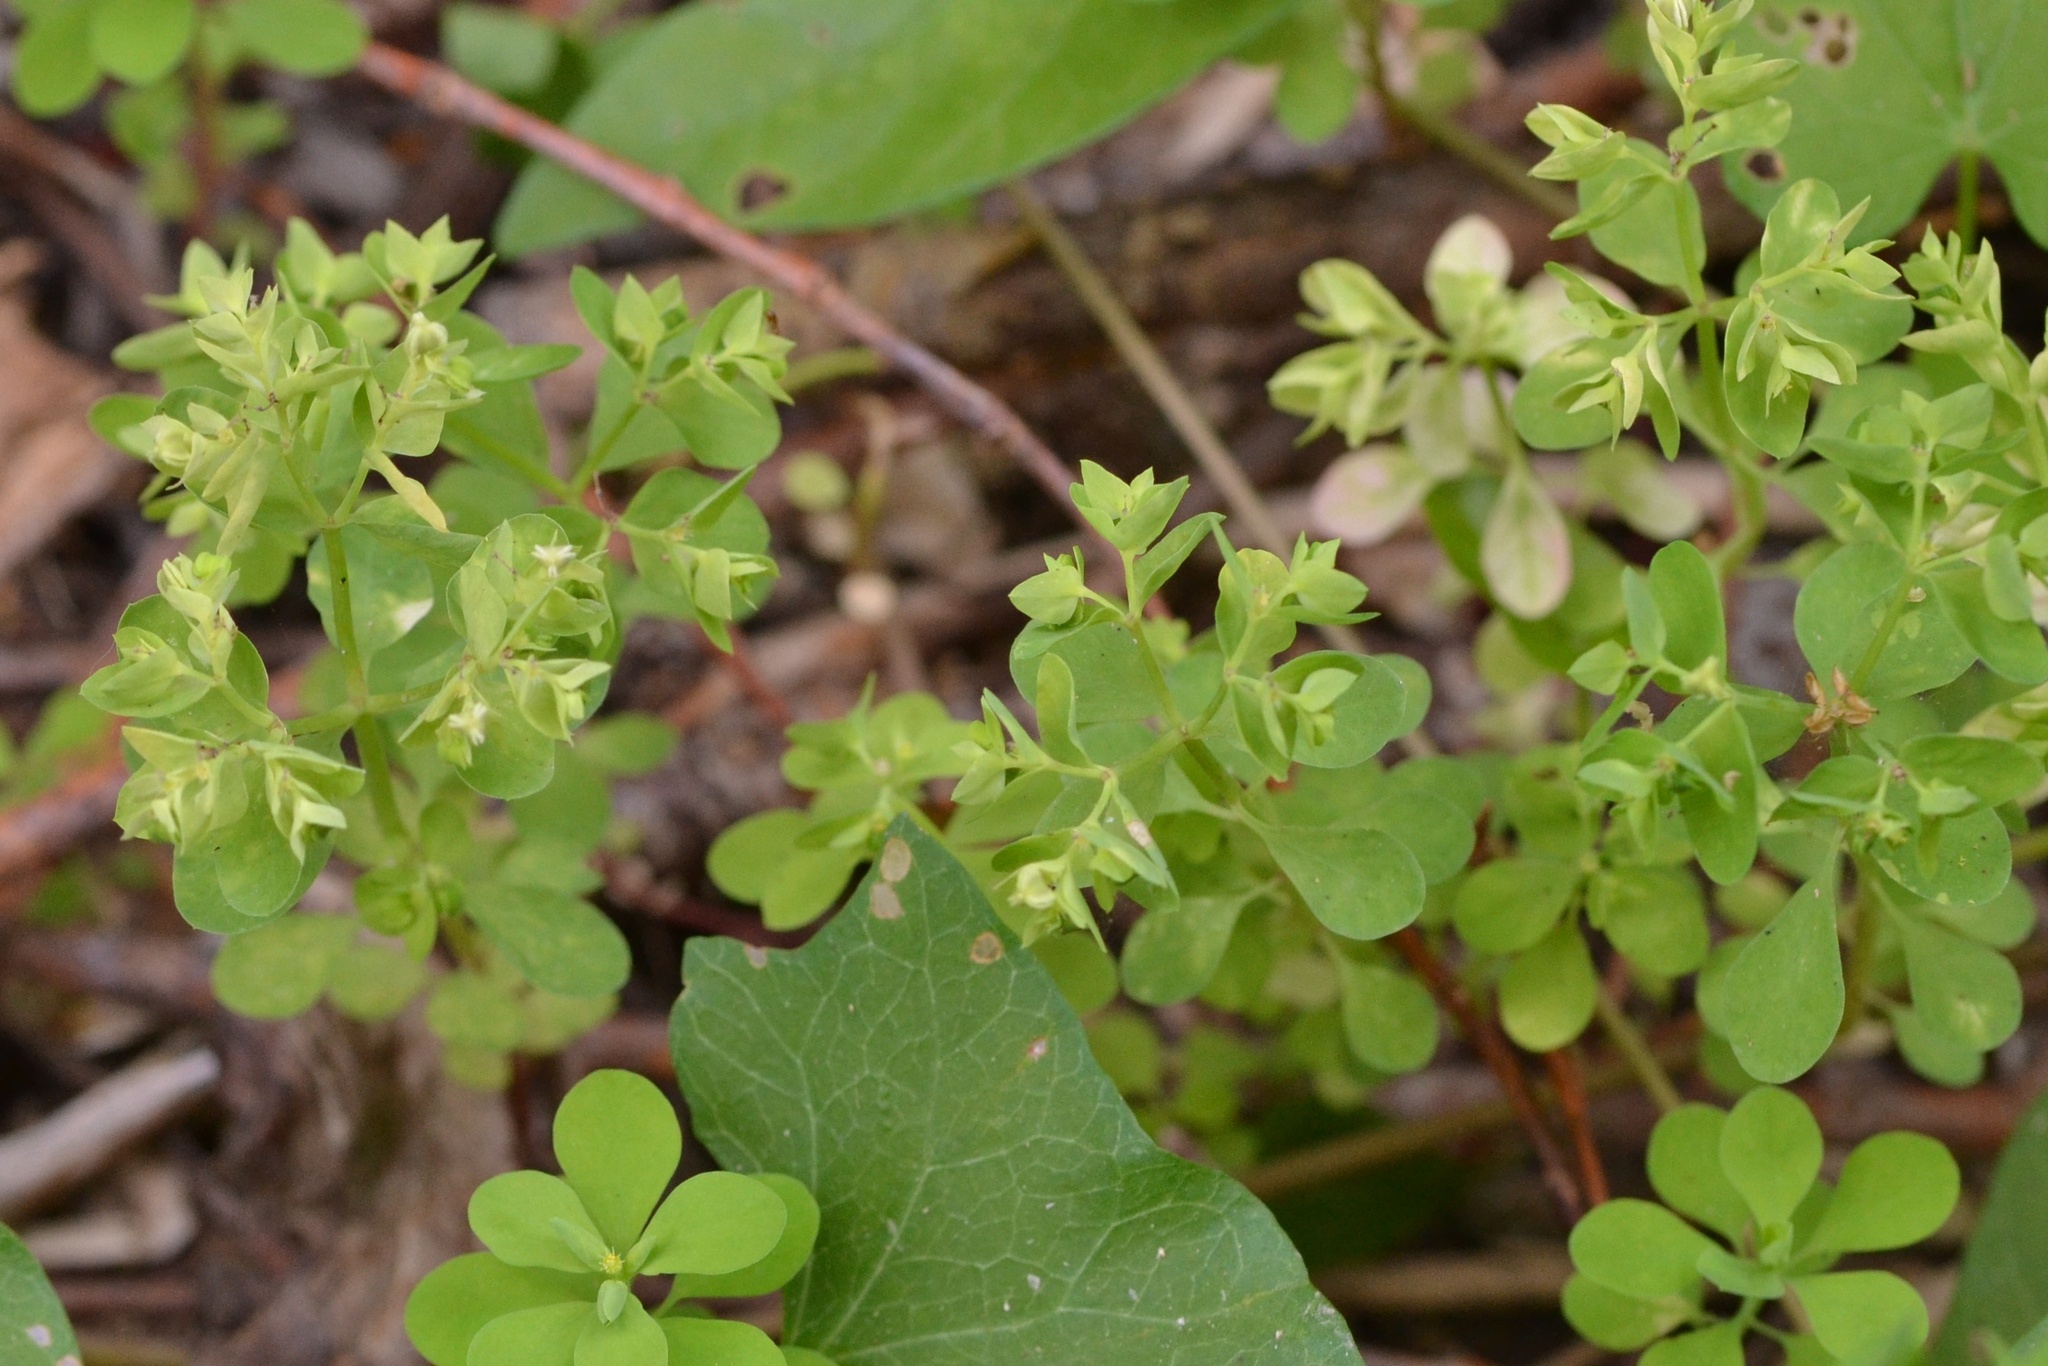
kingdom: Plantae
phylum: Tracheophyta
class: Magnoliopsida
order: Malpighiales
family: Euphorbiaceae
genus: Euphorbia
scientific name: Euphorbia peplus
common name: Petty spurge
